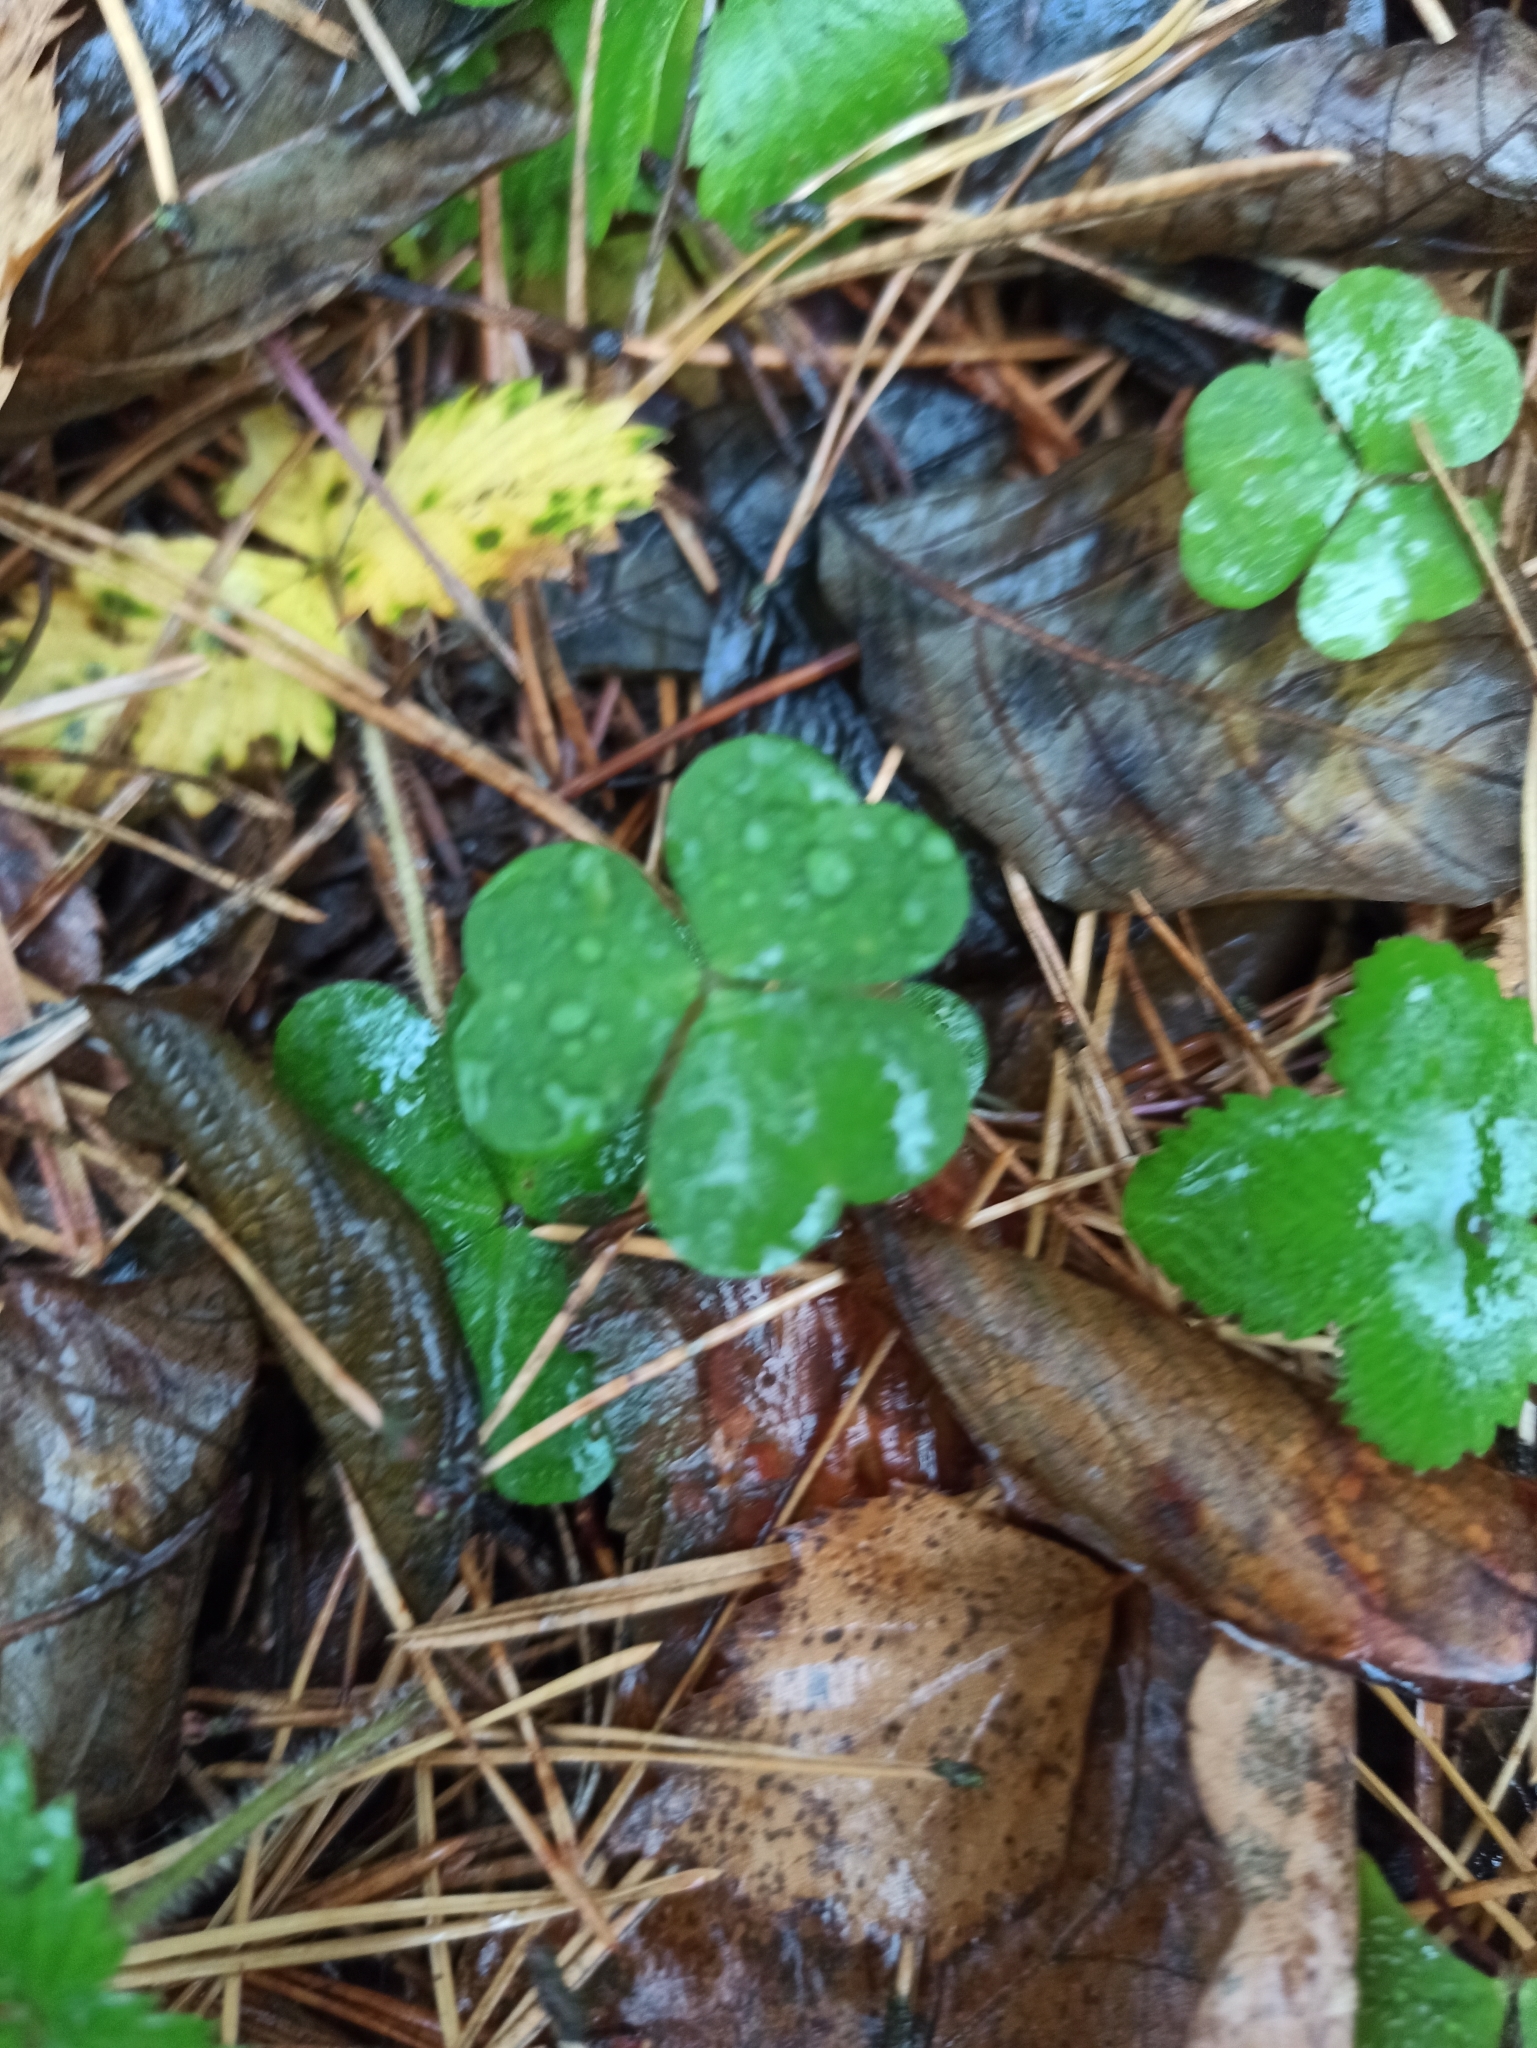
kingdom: Plantae
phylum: Tracheophyta
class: Magnoliopsida
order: Oxalidales
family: Oxalidaceae
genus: Oxalis
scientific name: Oxalis acetosella
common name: Wood-sorrel
